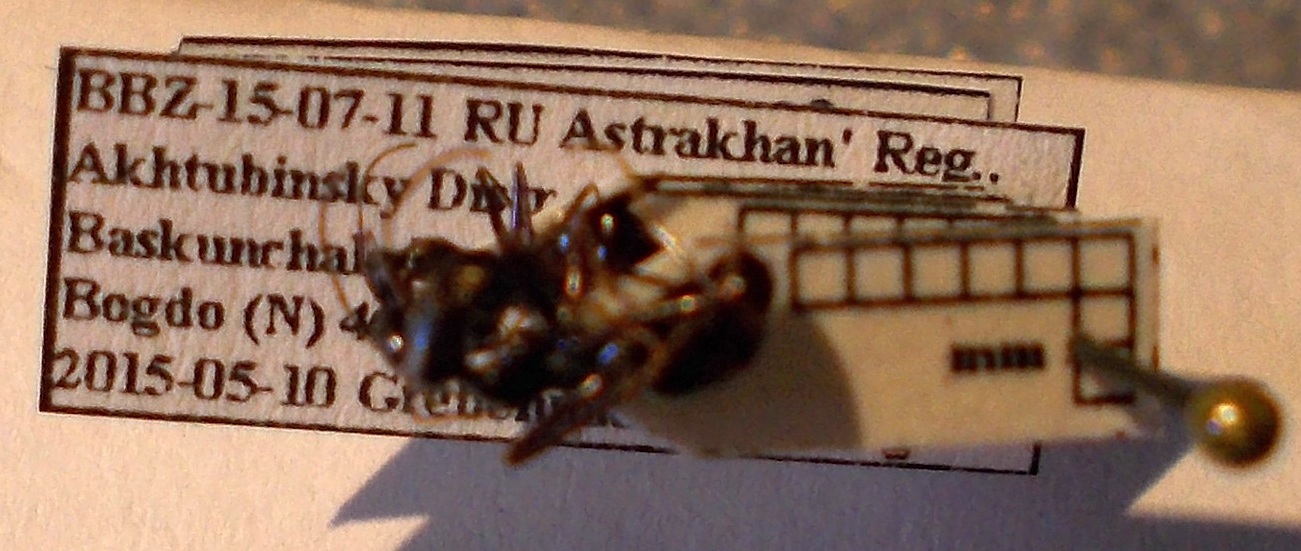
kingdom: Animalia
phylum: Arthropoda
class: Insecta
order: Hymenoptera
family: Formicidae
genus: Cataglyphis
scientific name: Cataglyphis aenescens
